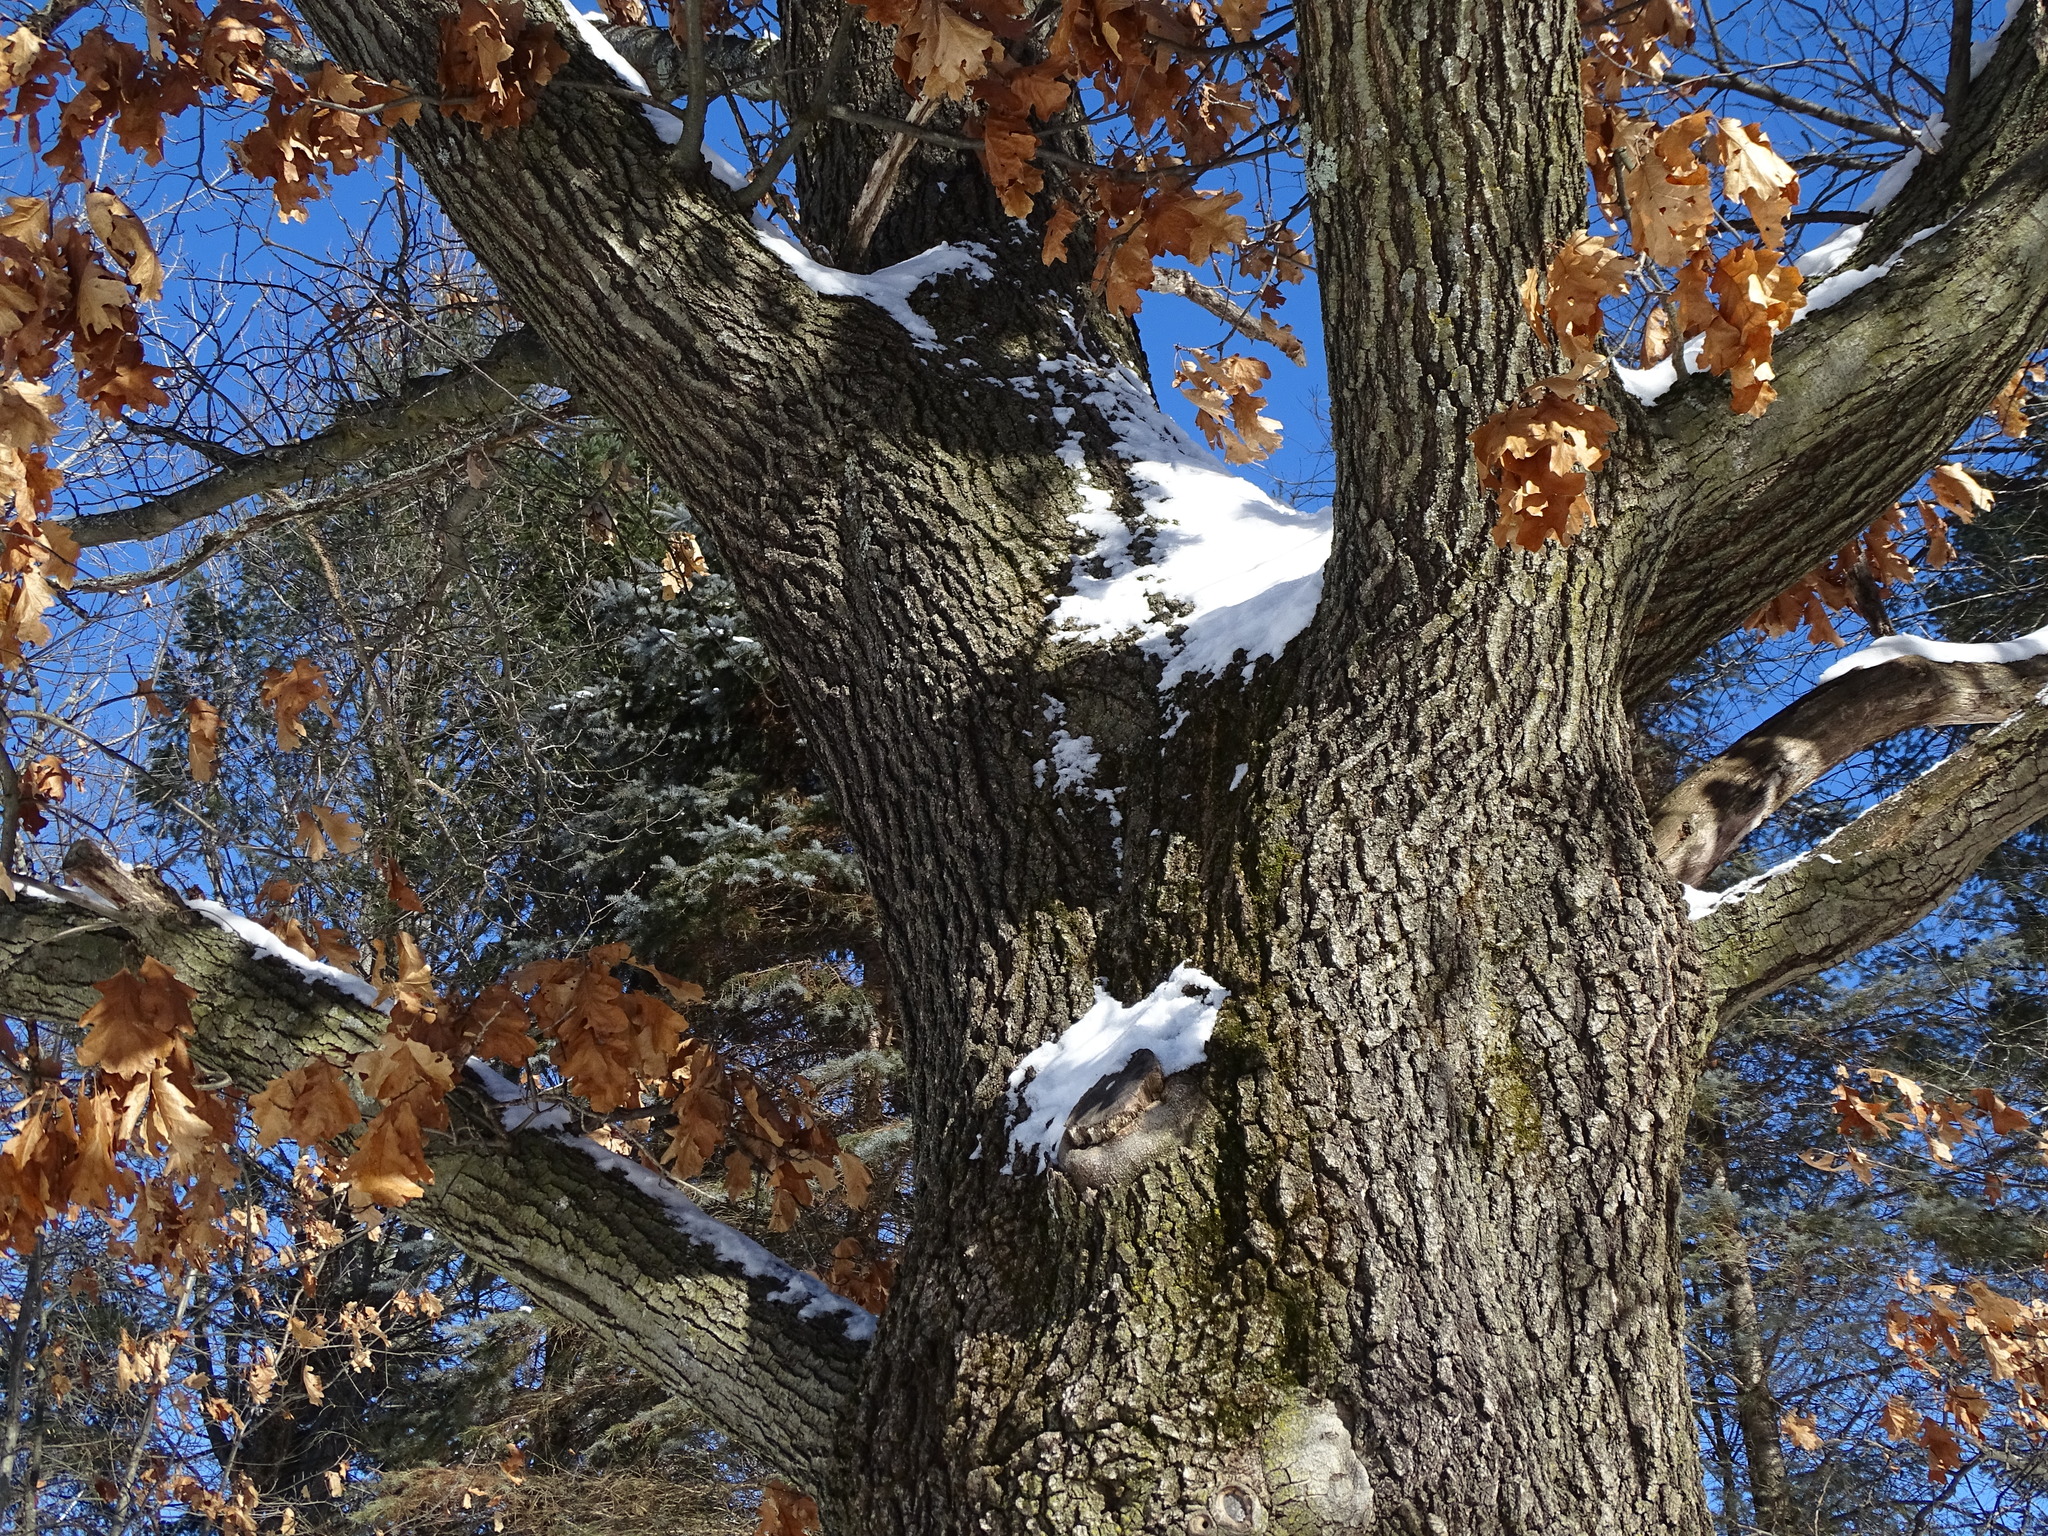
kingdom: Plantae
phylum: Tracheophyta
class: Magnoliopsida
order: Fagales
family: Fagaceae
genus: Quercus
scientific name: Quercus rubra
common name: Red oak
